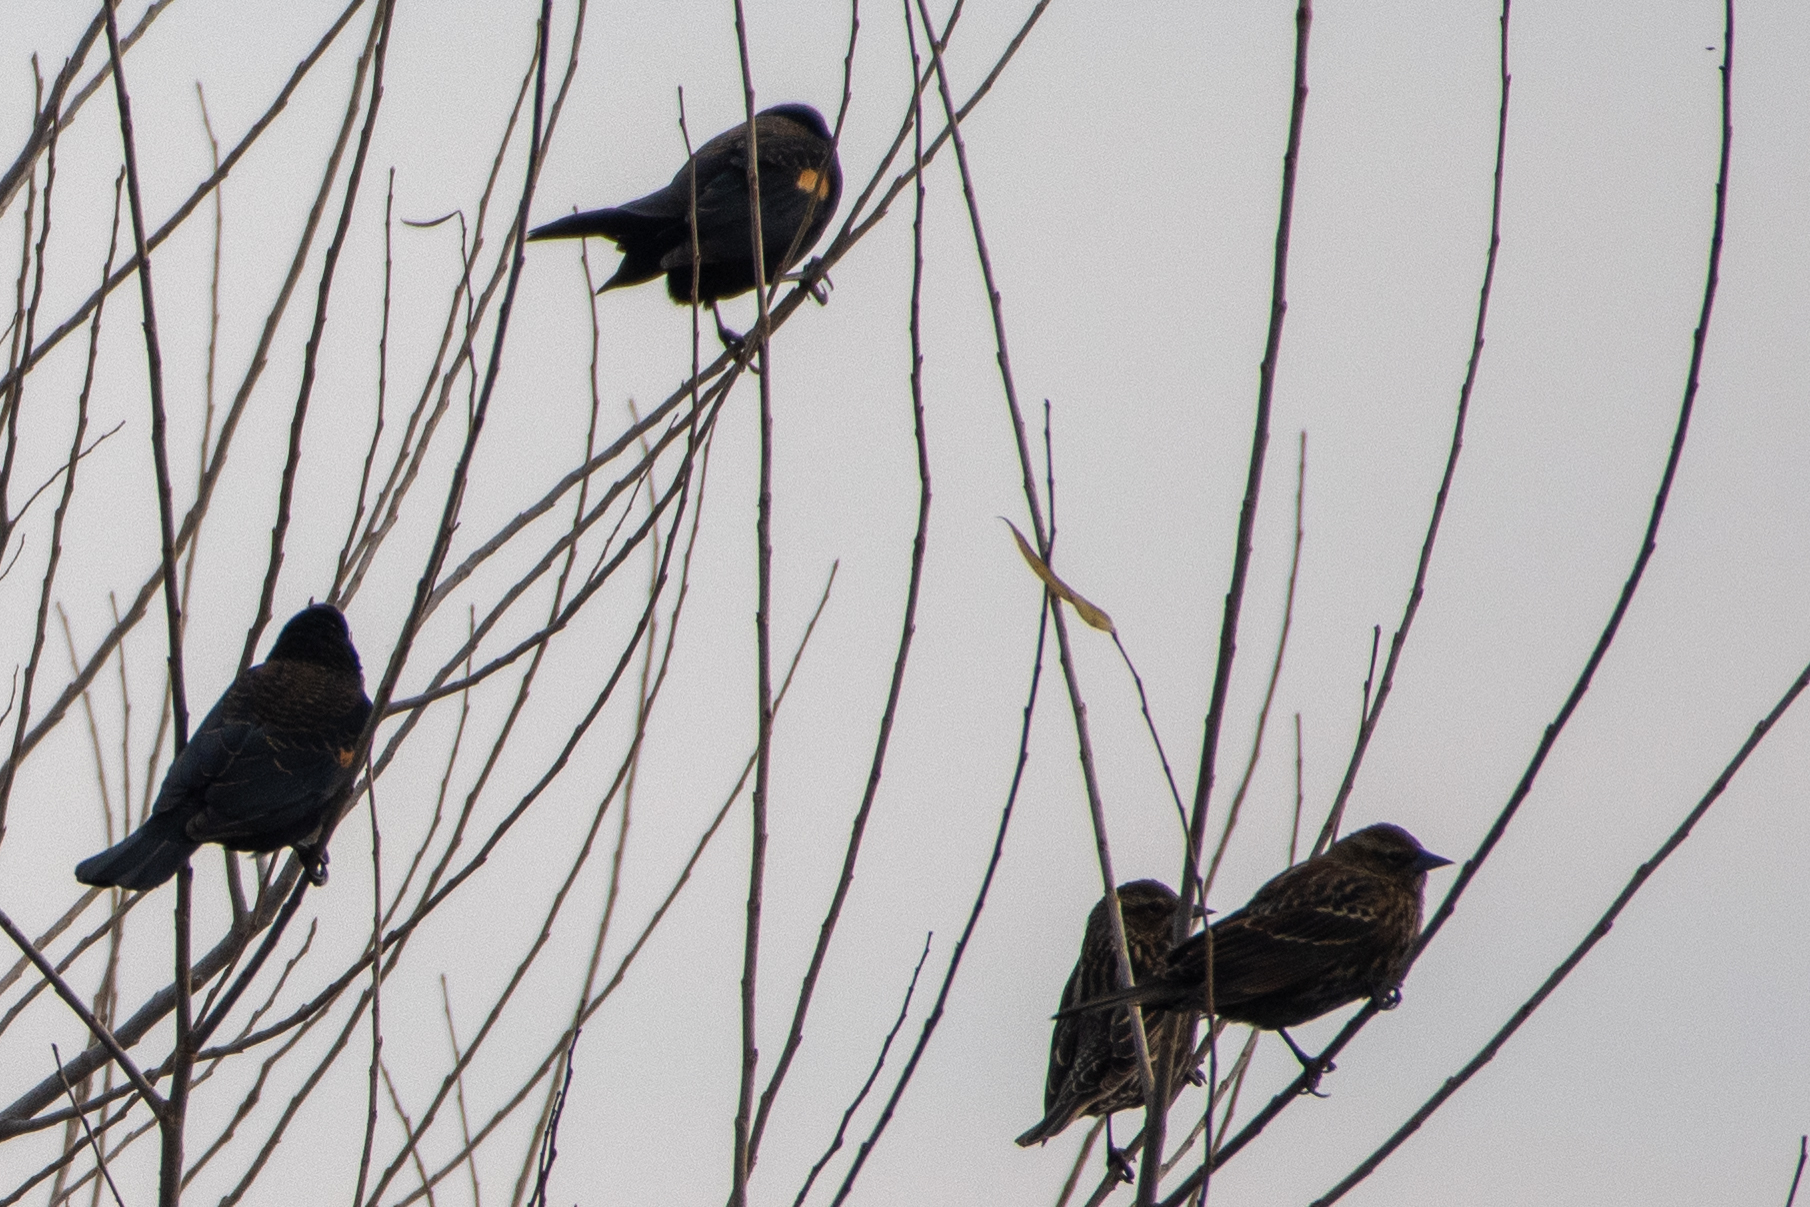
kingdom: Animalia
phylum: Chordata
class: Aves
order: Passeriformes
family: Icteridae
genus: Agelaius
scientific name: Agelaius phoeniceus
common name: Red-winged blackbird
